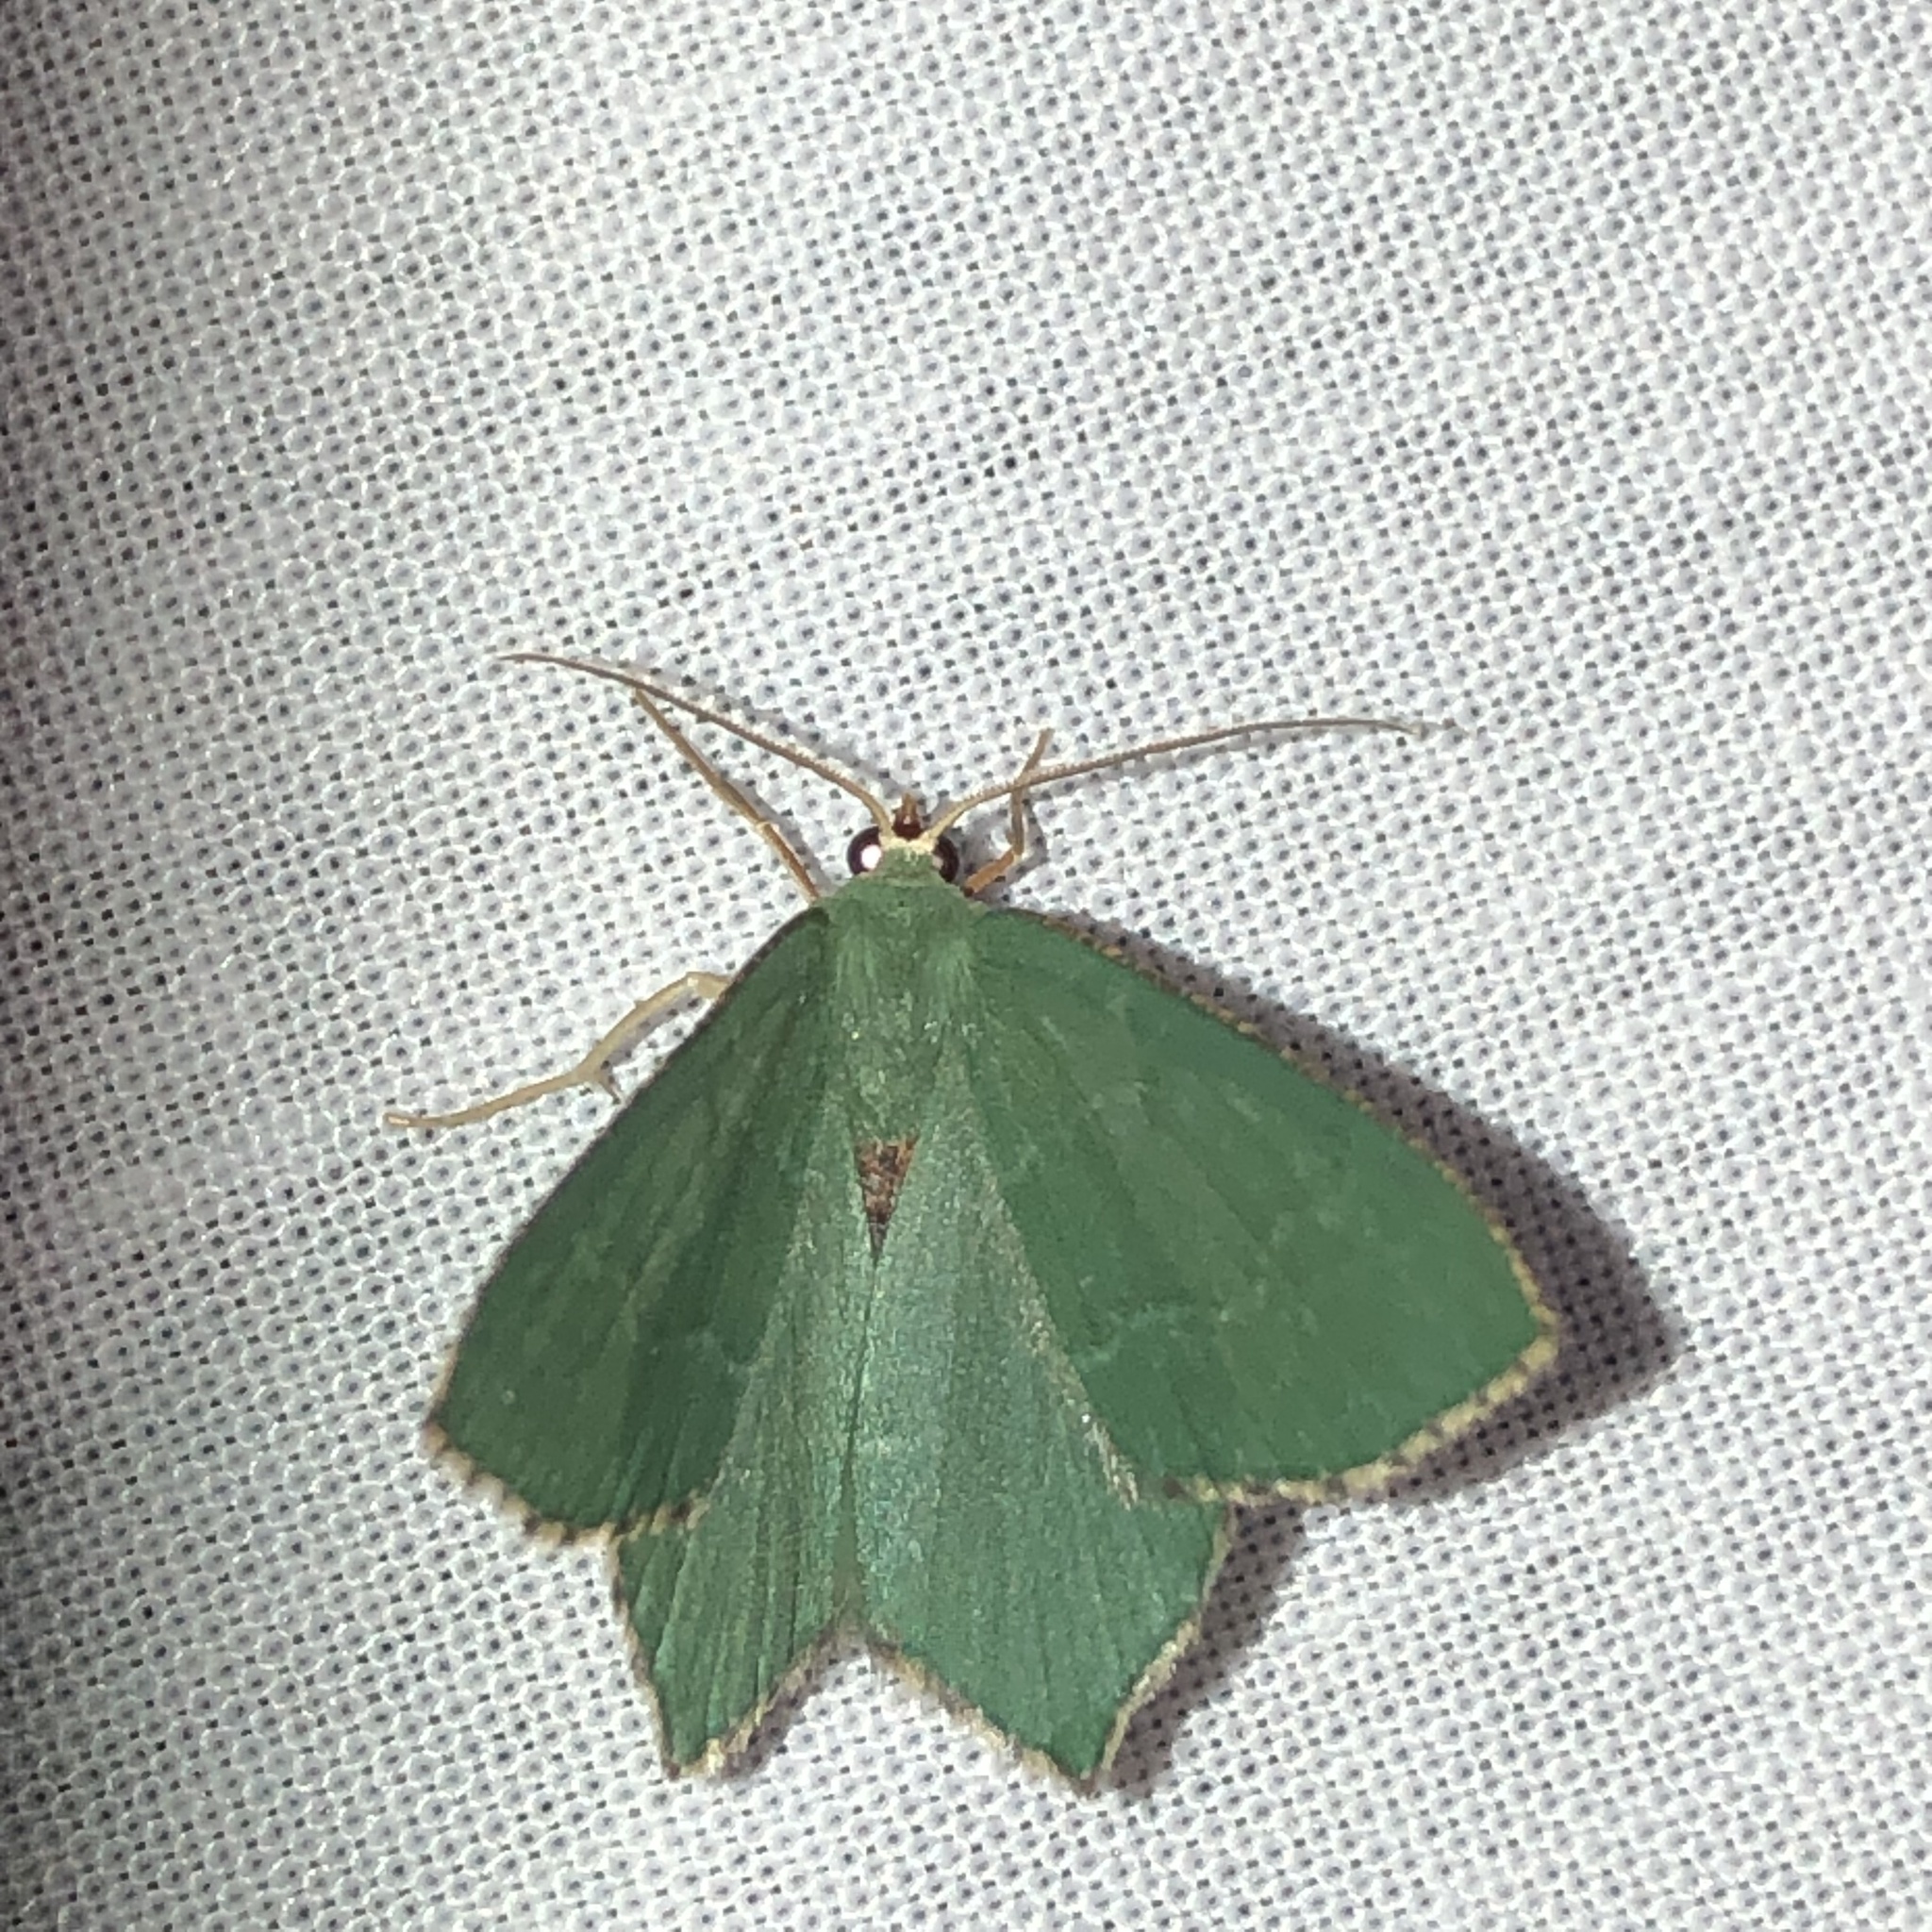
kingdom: Animalia
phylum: Arthropoda
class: Insecta
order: Lepidoptera
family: Geometridae
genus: Hemithea
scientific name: Hemithea aestivaria
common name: Common emerald
